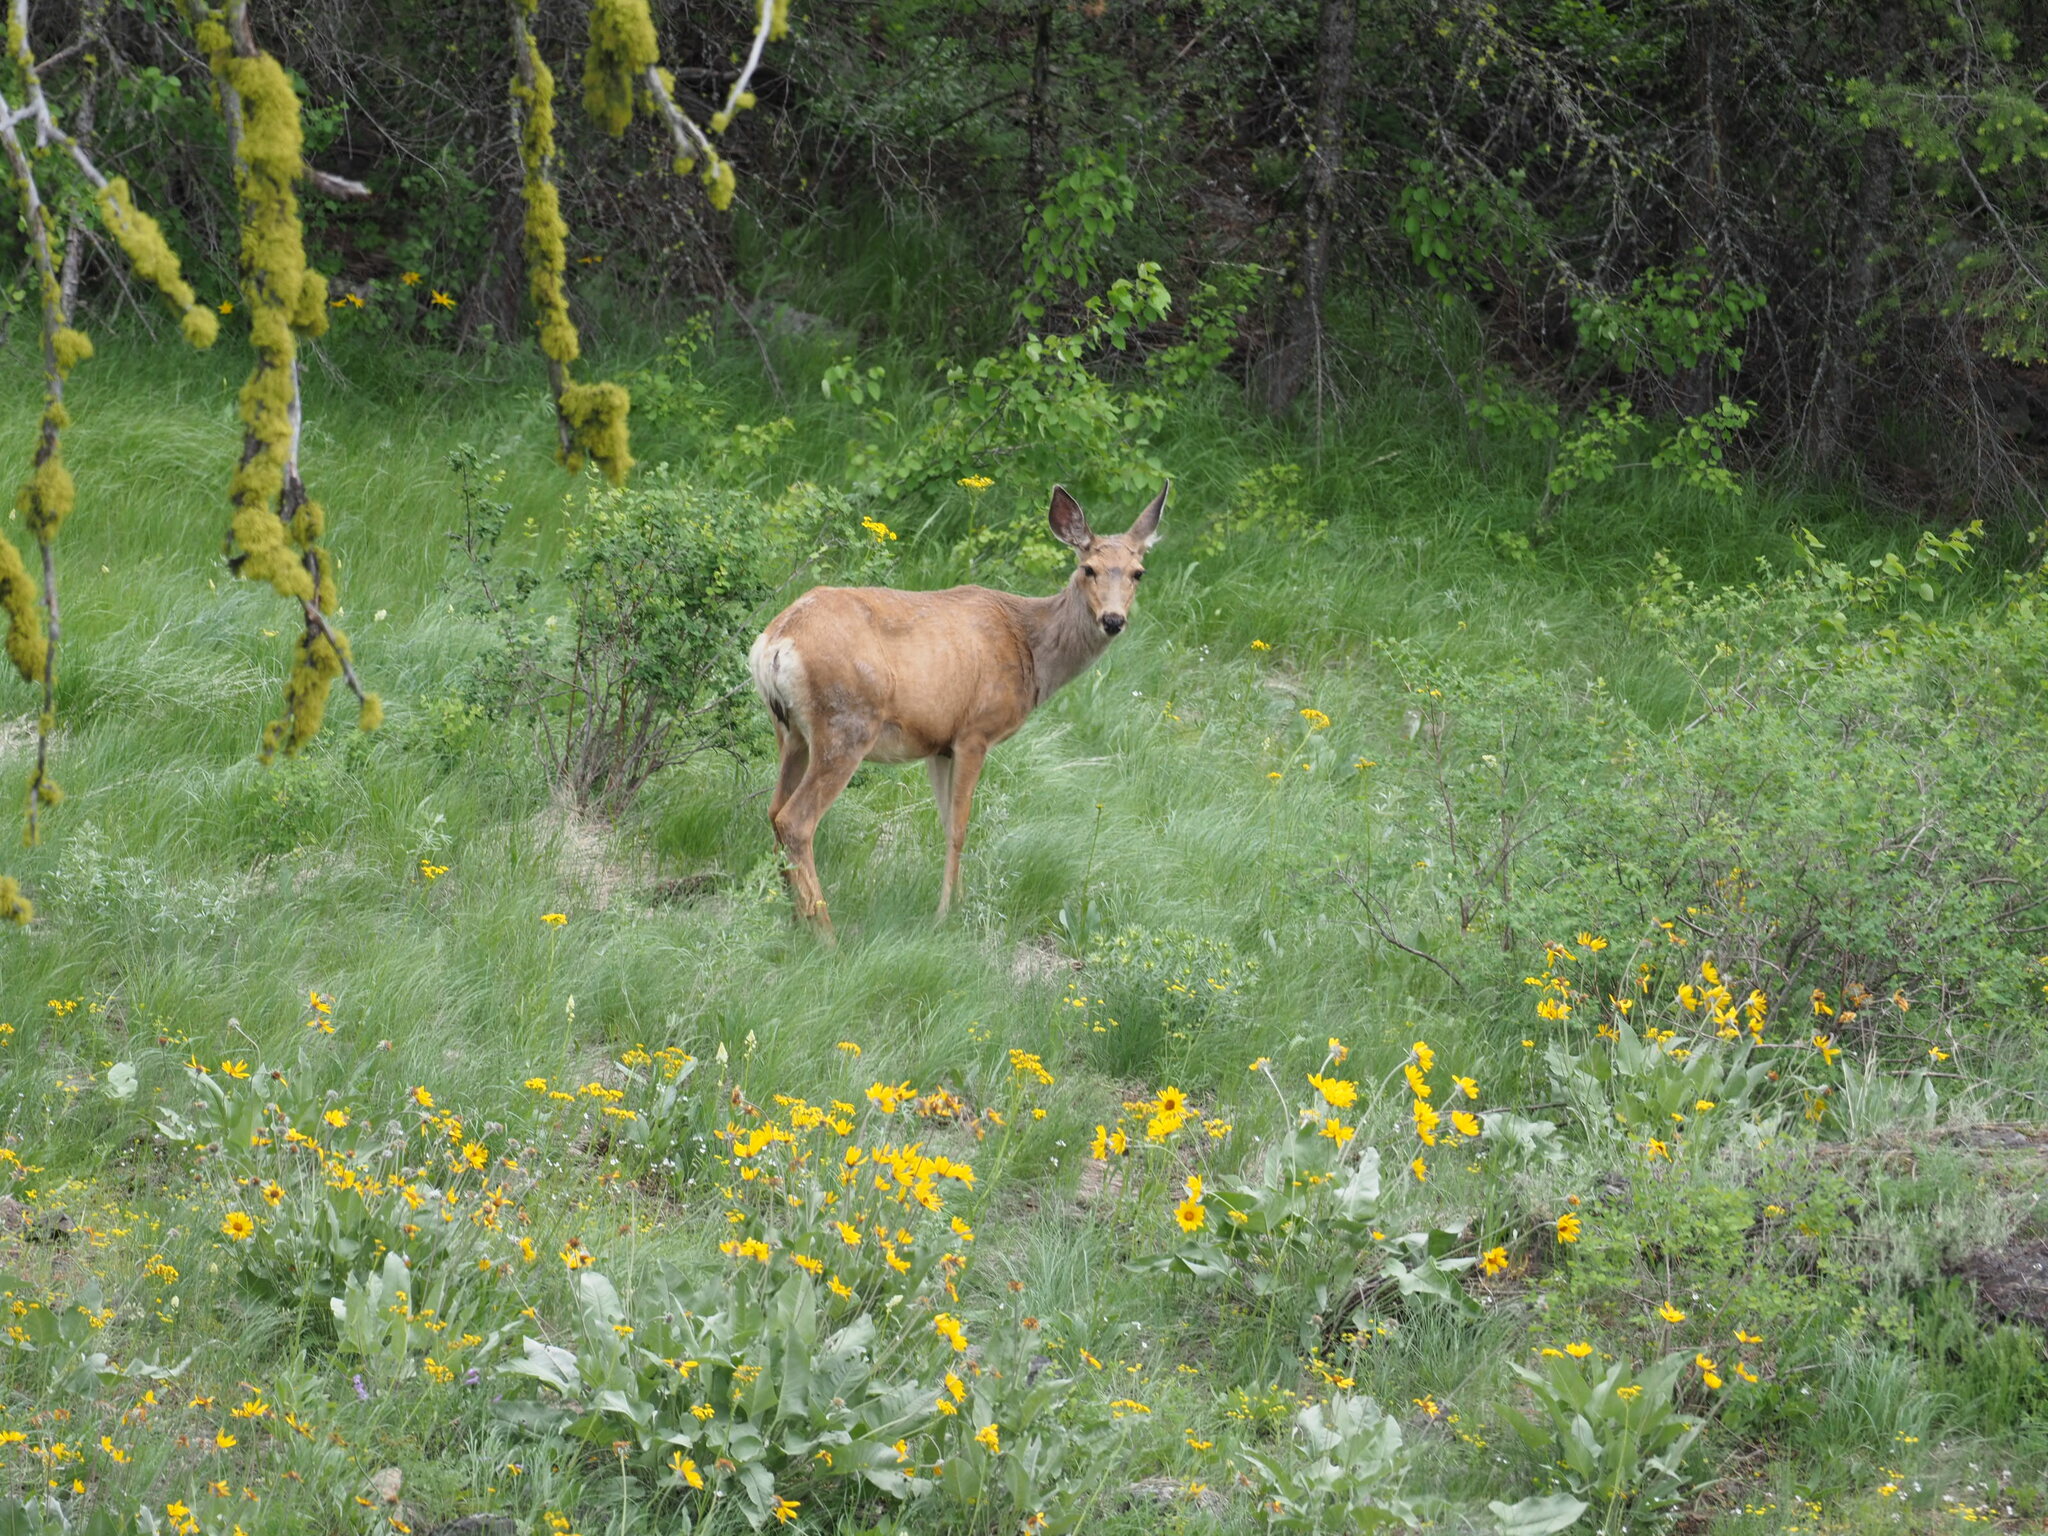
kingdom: Animalia
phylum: Chordata
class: Mammalia
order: Artiodactyla
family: Cervidae
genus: Odocoileus
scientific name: Odocoileus hemionus
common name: Mule deer
